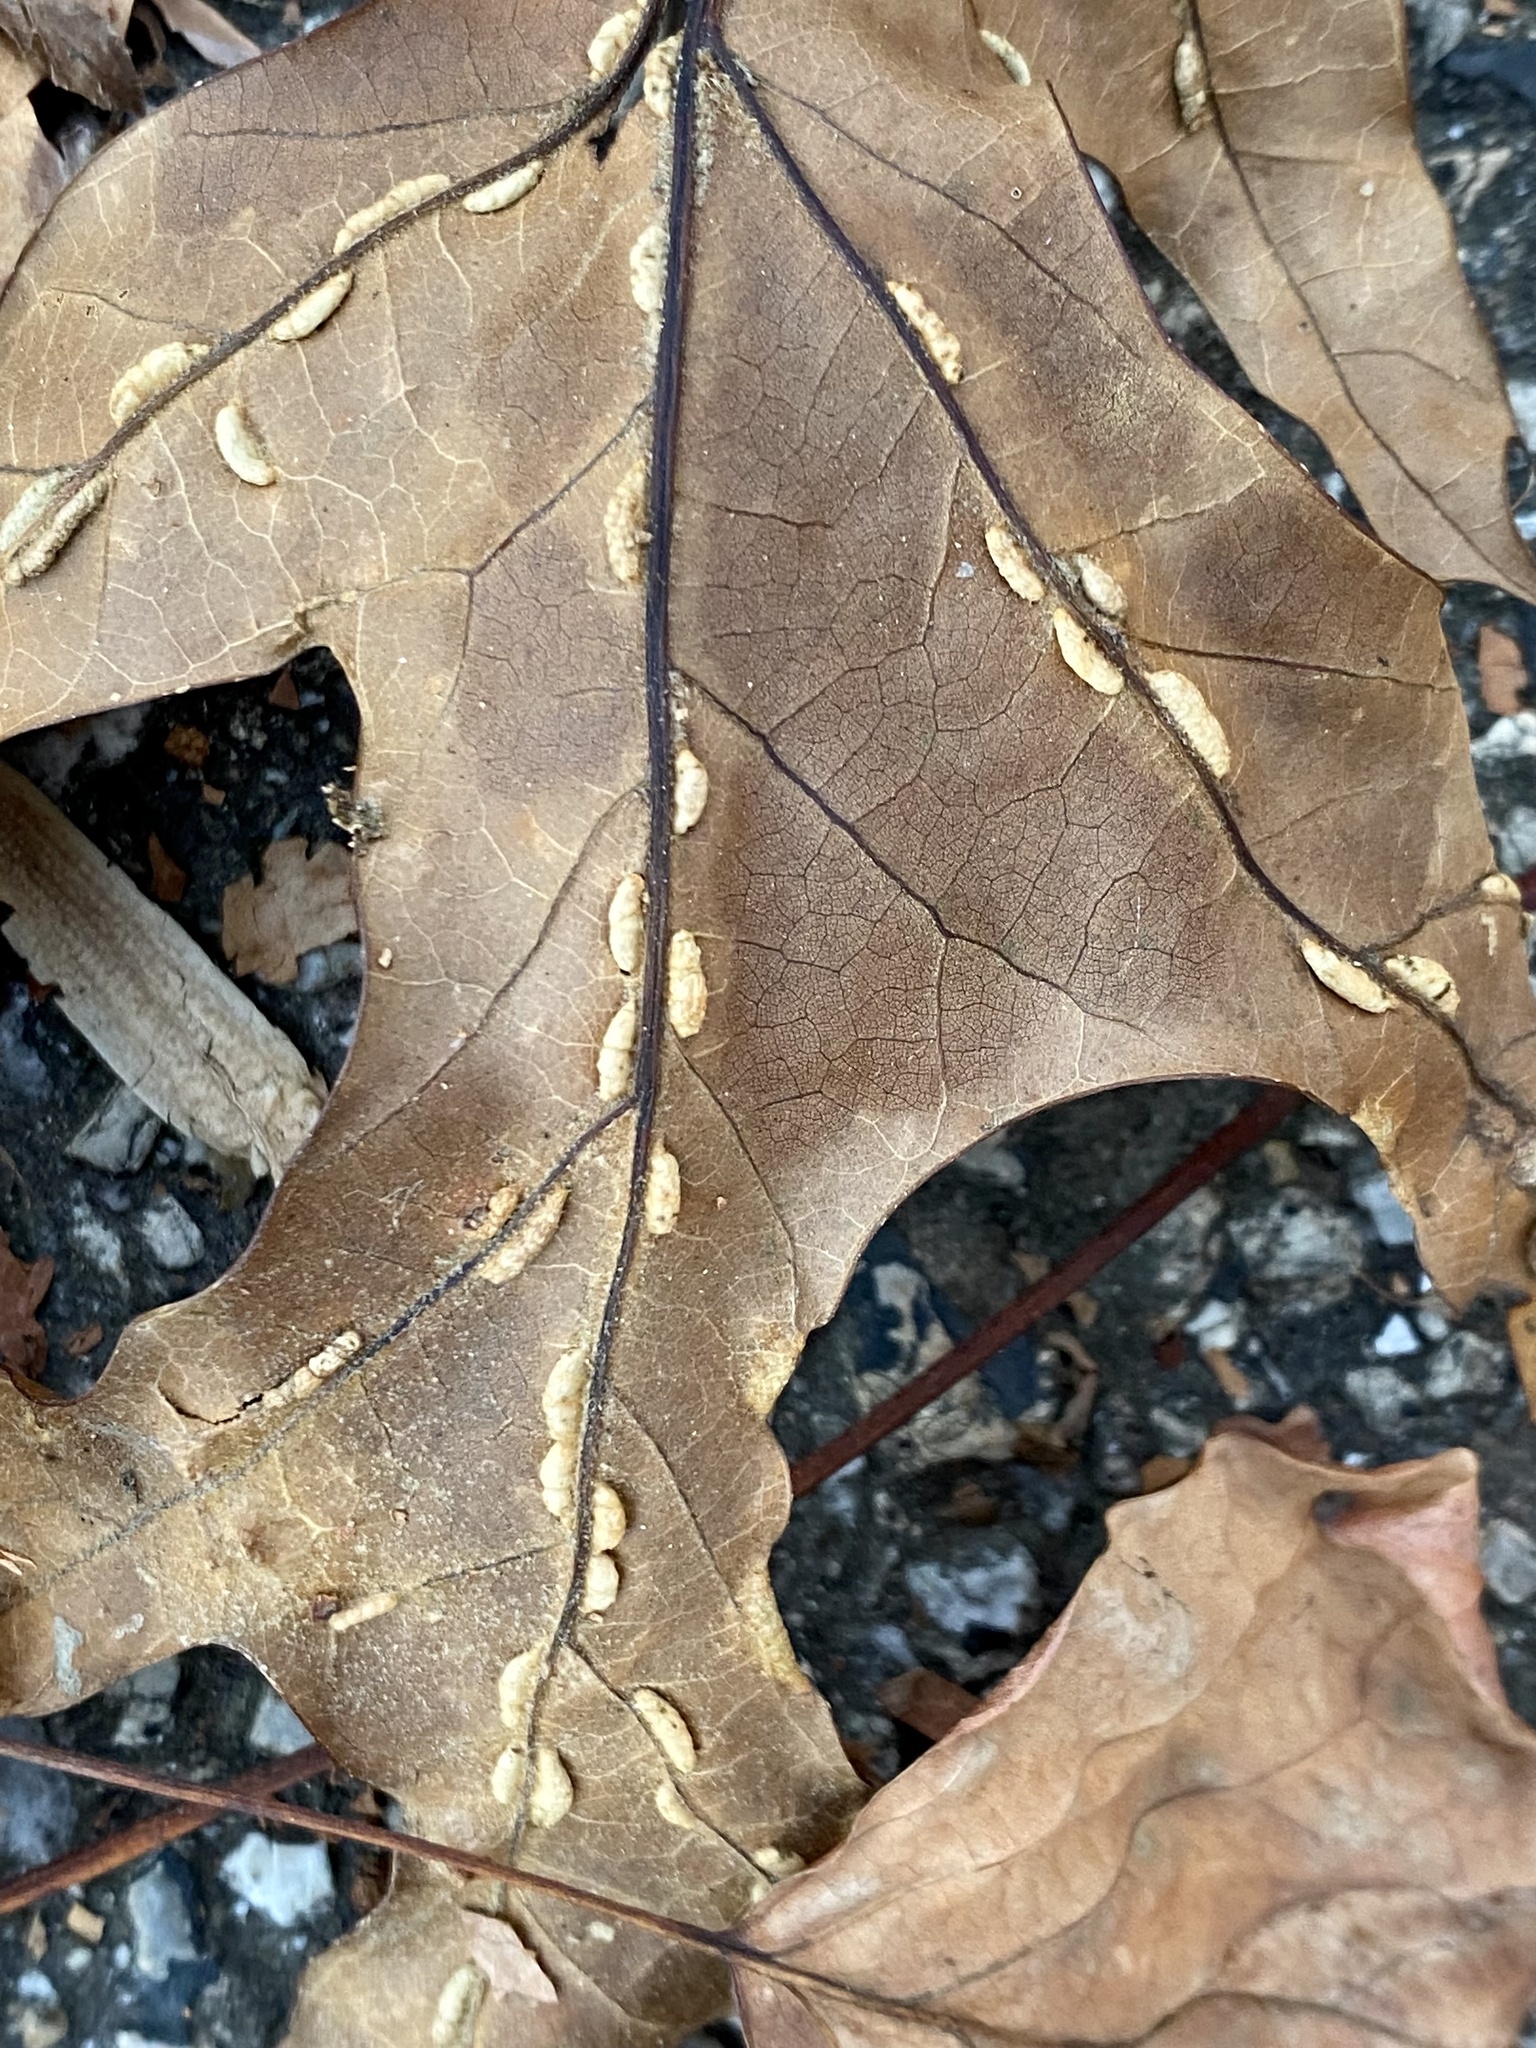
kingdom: Animalia
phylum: Arthropoda
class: Insecta
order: Diptera
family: Cecidomyiidae
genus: Macrodiplosis
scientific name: Macrodiplosis q-orucum
